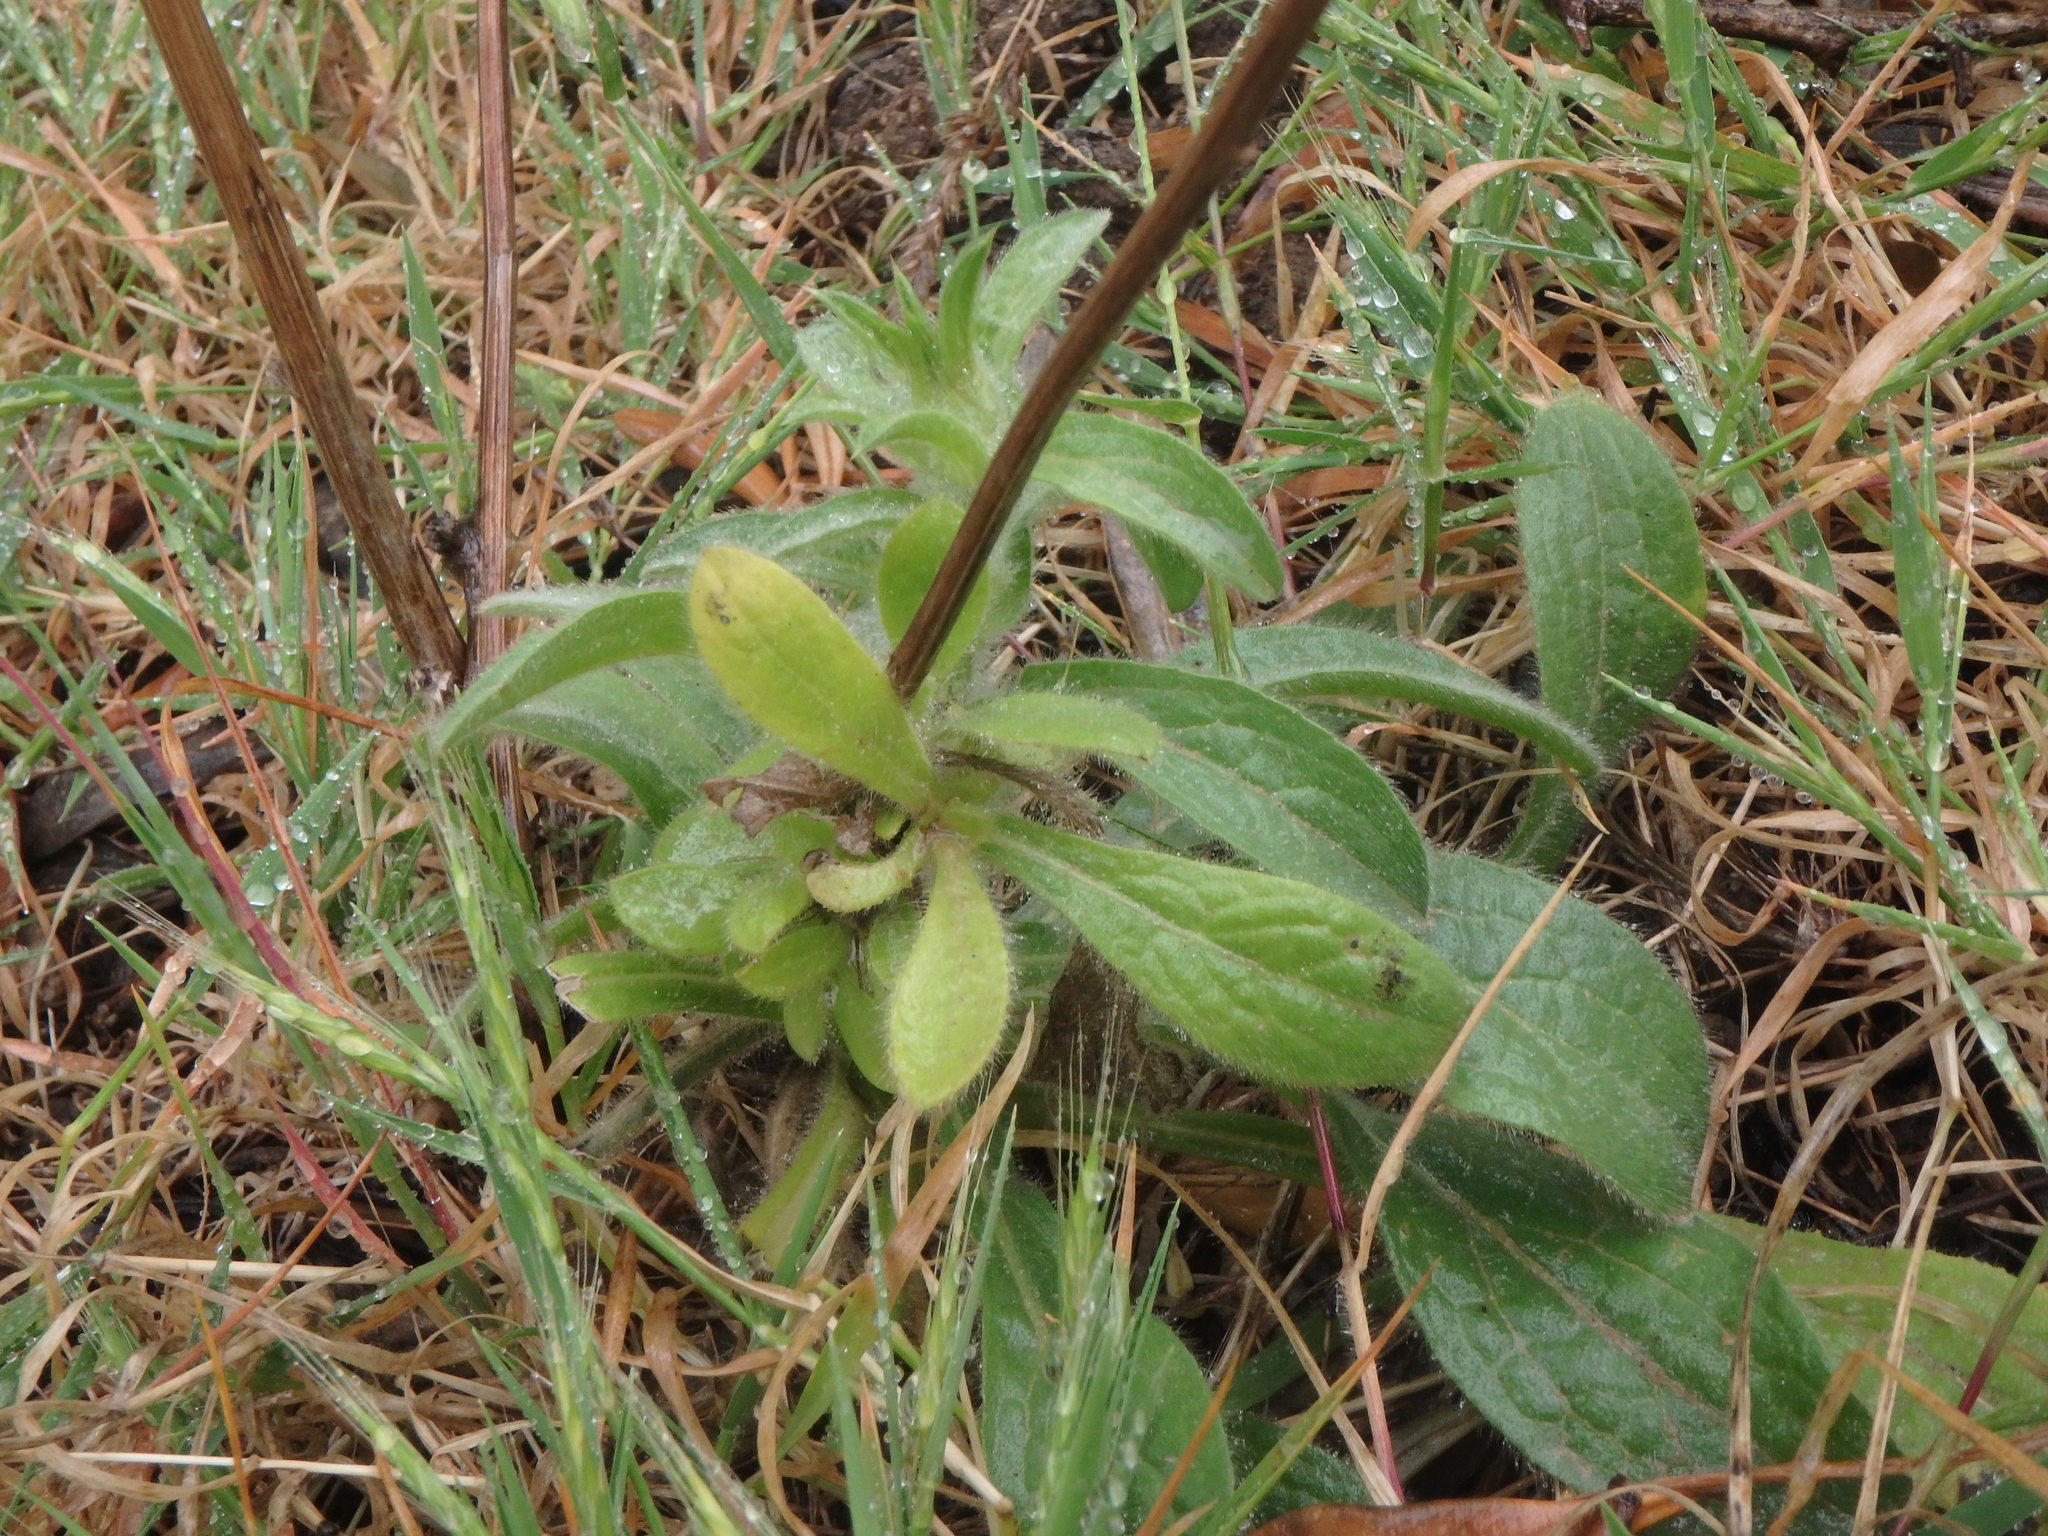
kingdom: Plantae
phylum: Tracheophyta
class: Magnoliopsida
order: Asterales
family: Asteraceae
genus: Pulicaria
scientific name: Pulicaria odora
